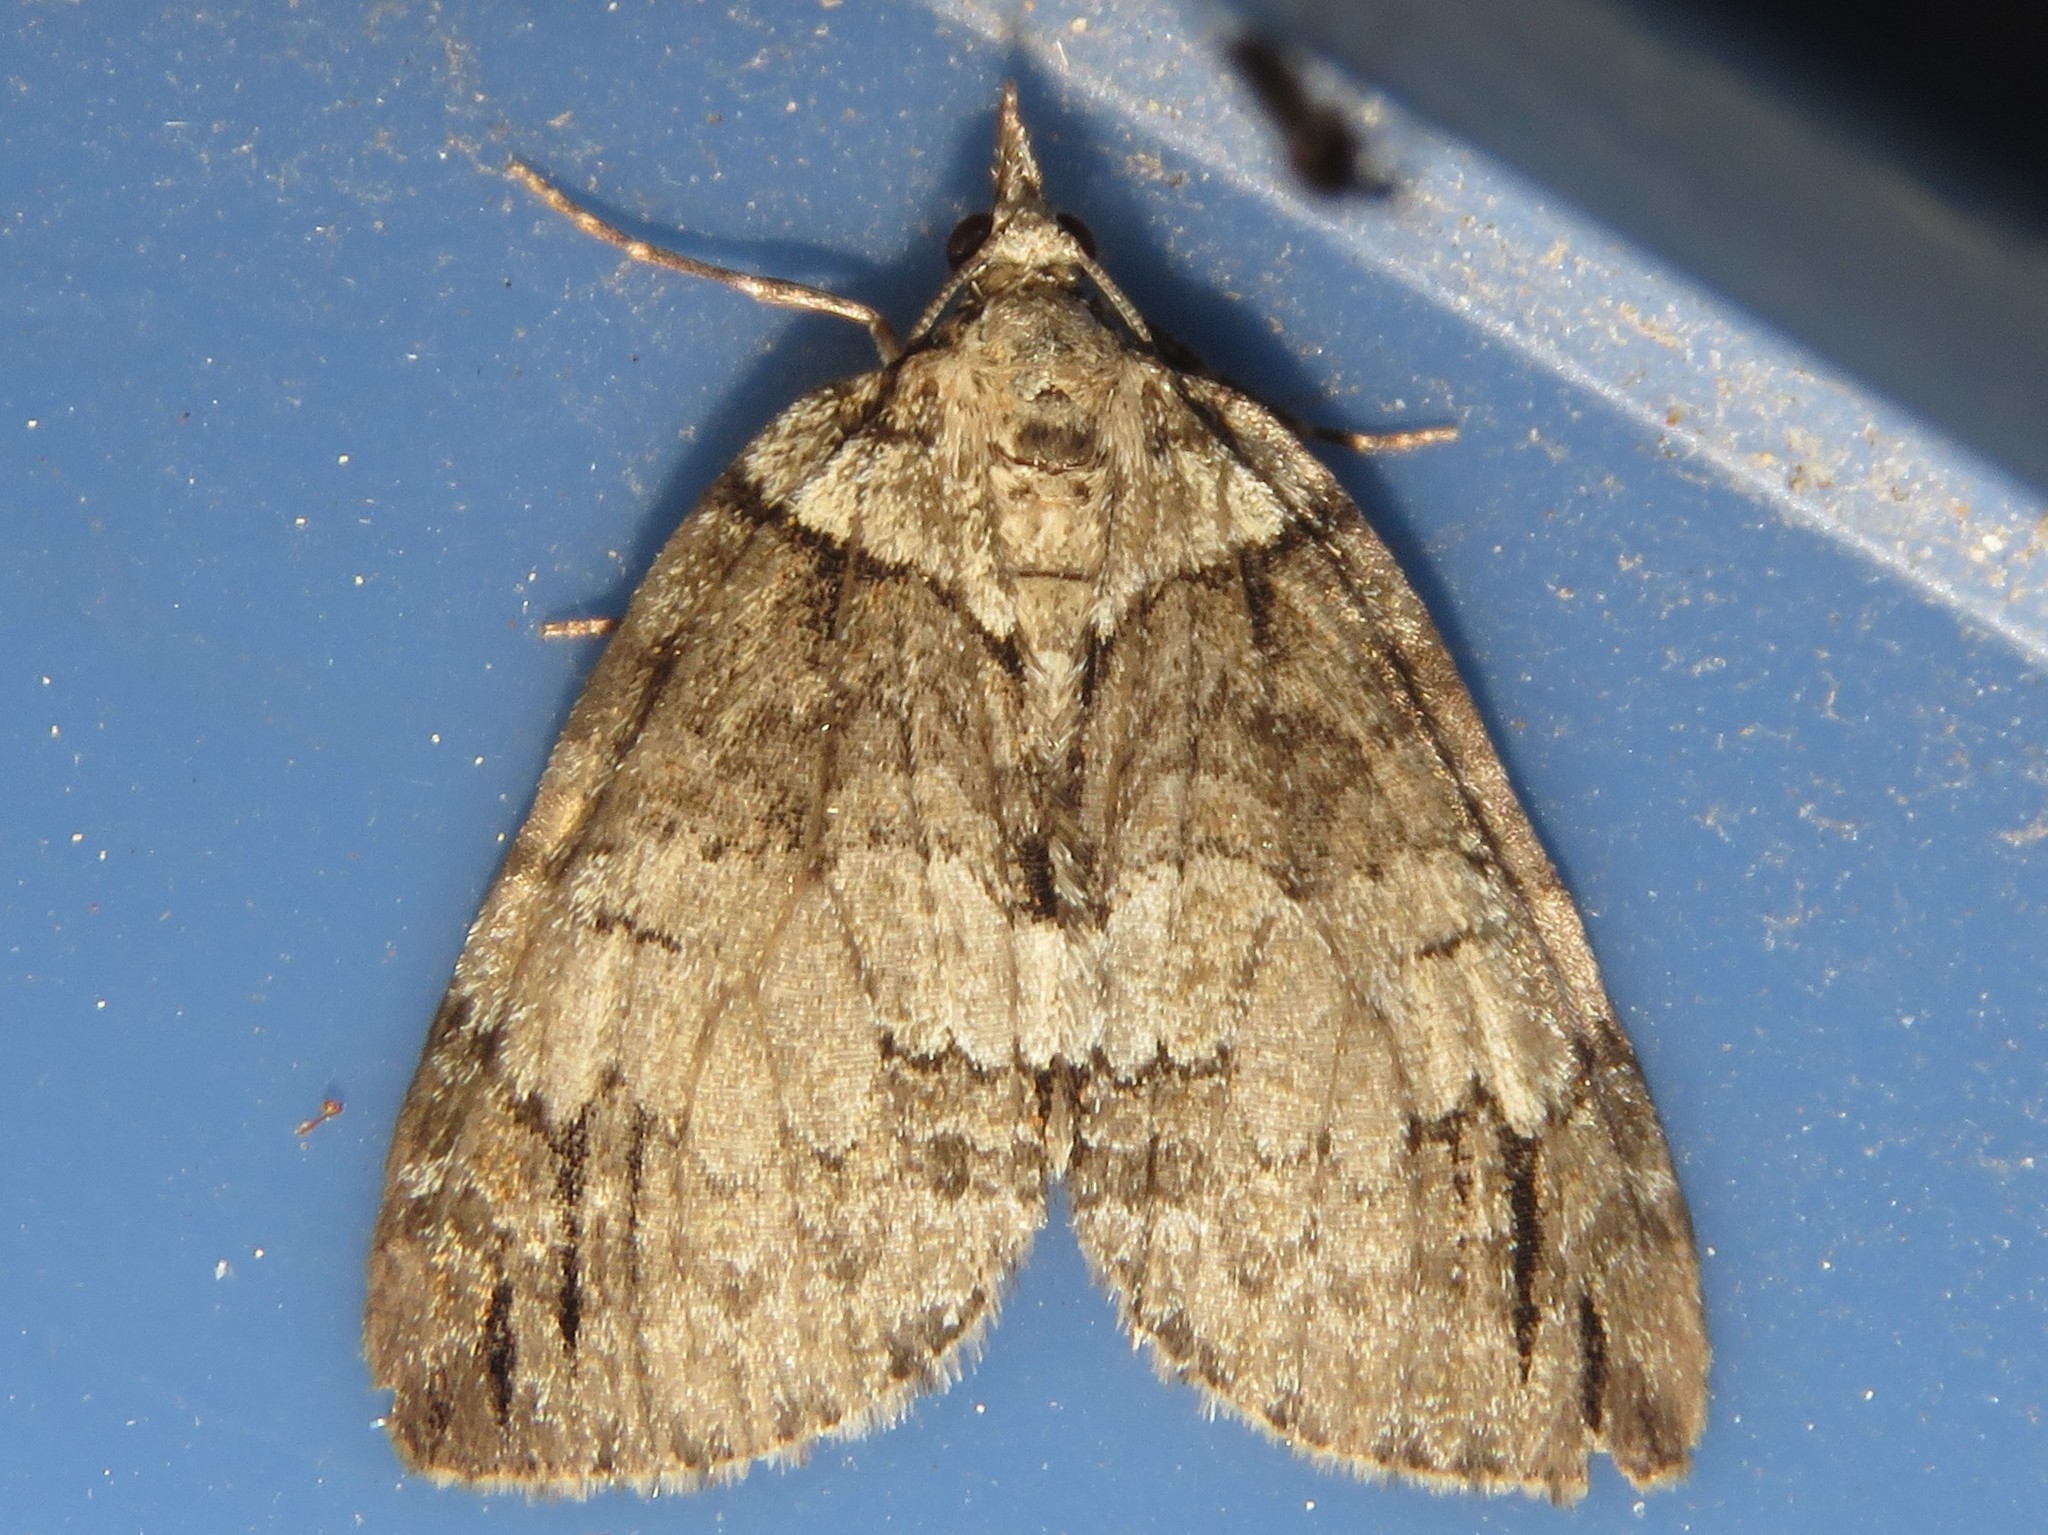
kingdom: Animalia
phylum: Arthropoda
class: Insecta
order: Lepidoptera
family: Geometridae
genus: Hydriomena
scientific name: Hydriomena ruberata
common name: Ruddy highflyer
